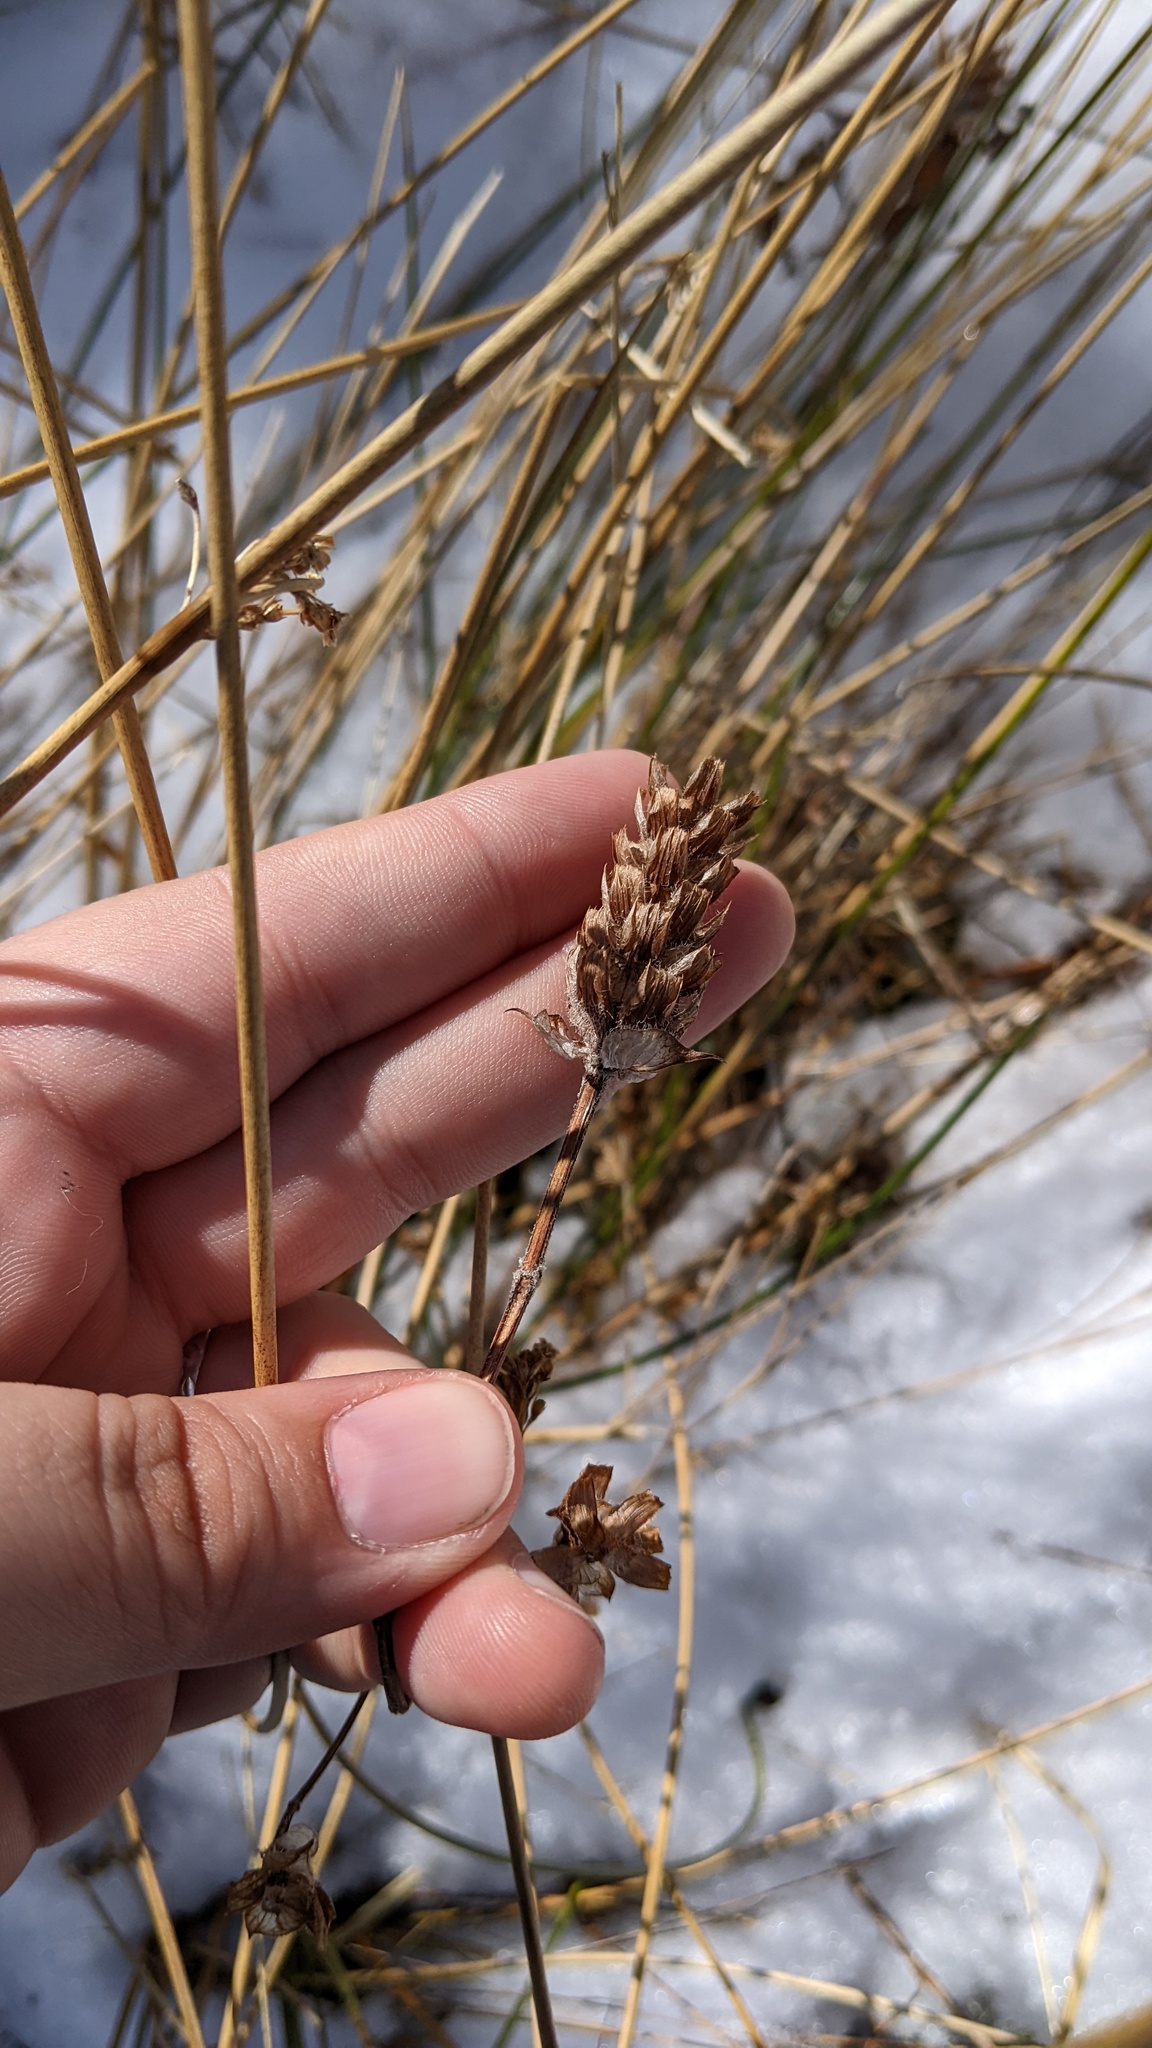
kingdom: Plantae
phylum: Tracheophyta
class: Magnoliopsida
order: Lamiales
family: Lamiaceae
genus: Prunella
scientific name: Prunella vulgaris
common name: Heal-all
